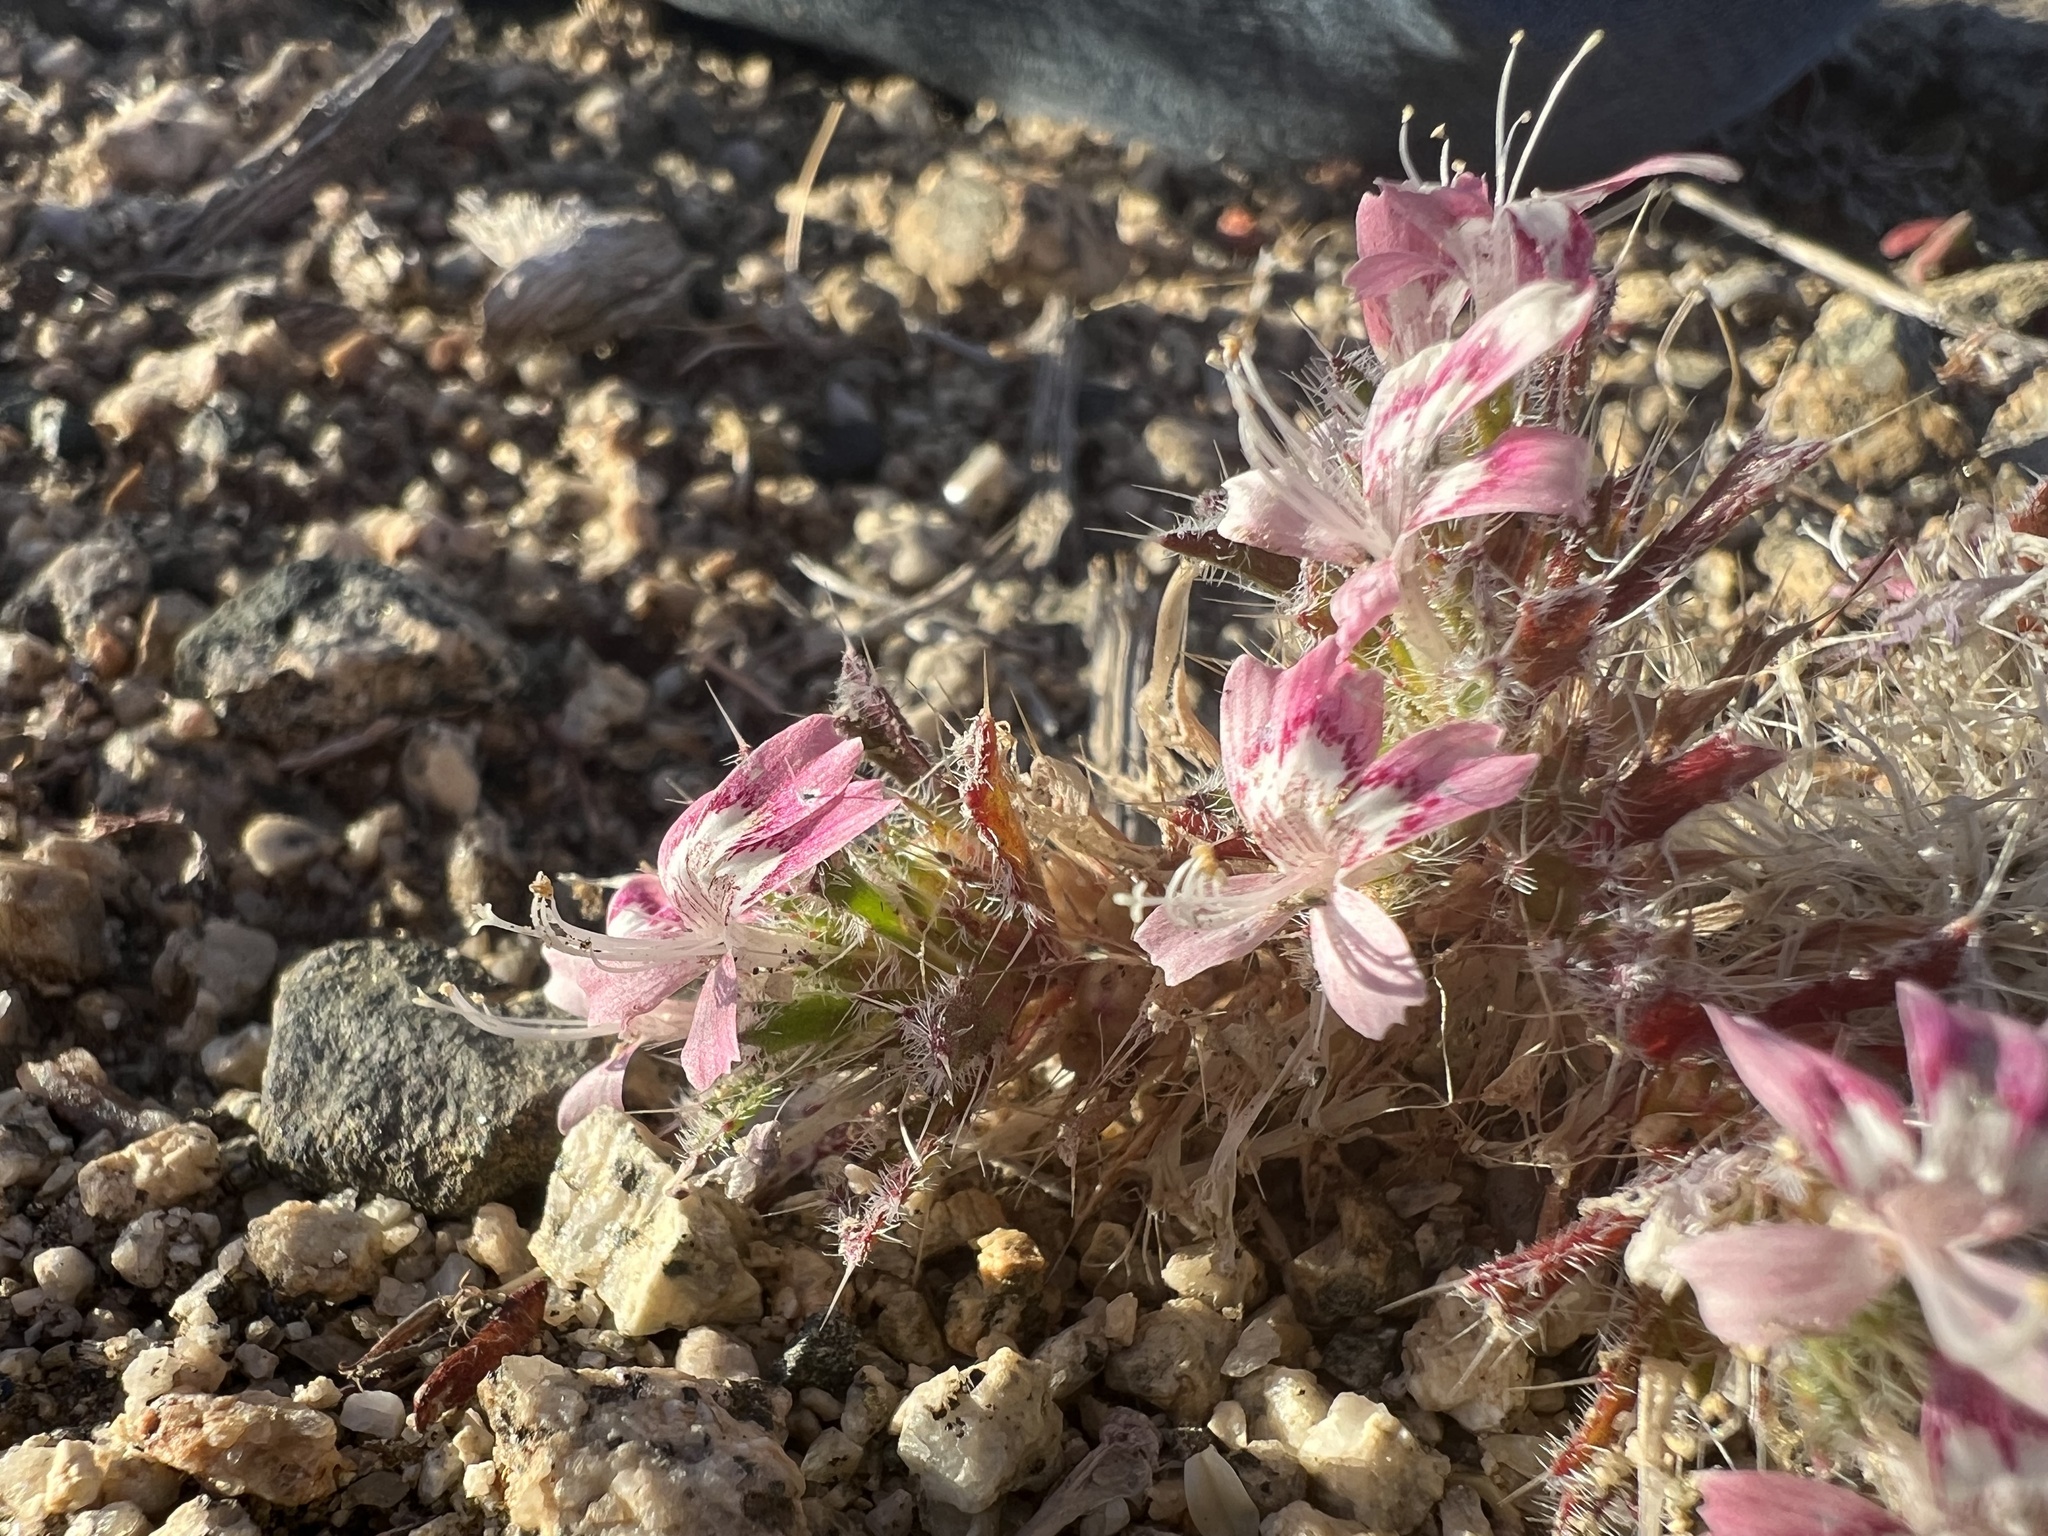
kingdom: Plantae
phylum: Tracheophyta
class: Magnoliopsida
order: Ericales
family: Polemoniaceae
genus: Loeseliastrum
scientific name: Loeseliastrum matthewsii
